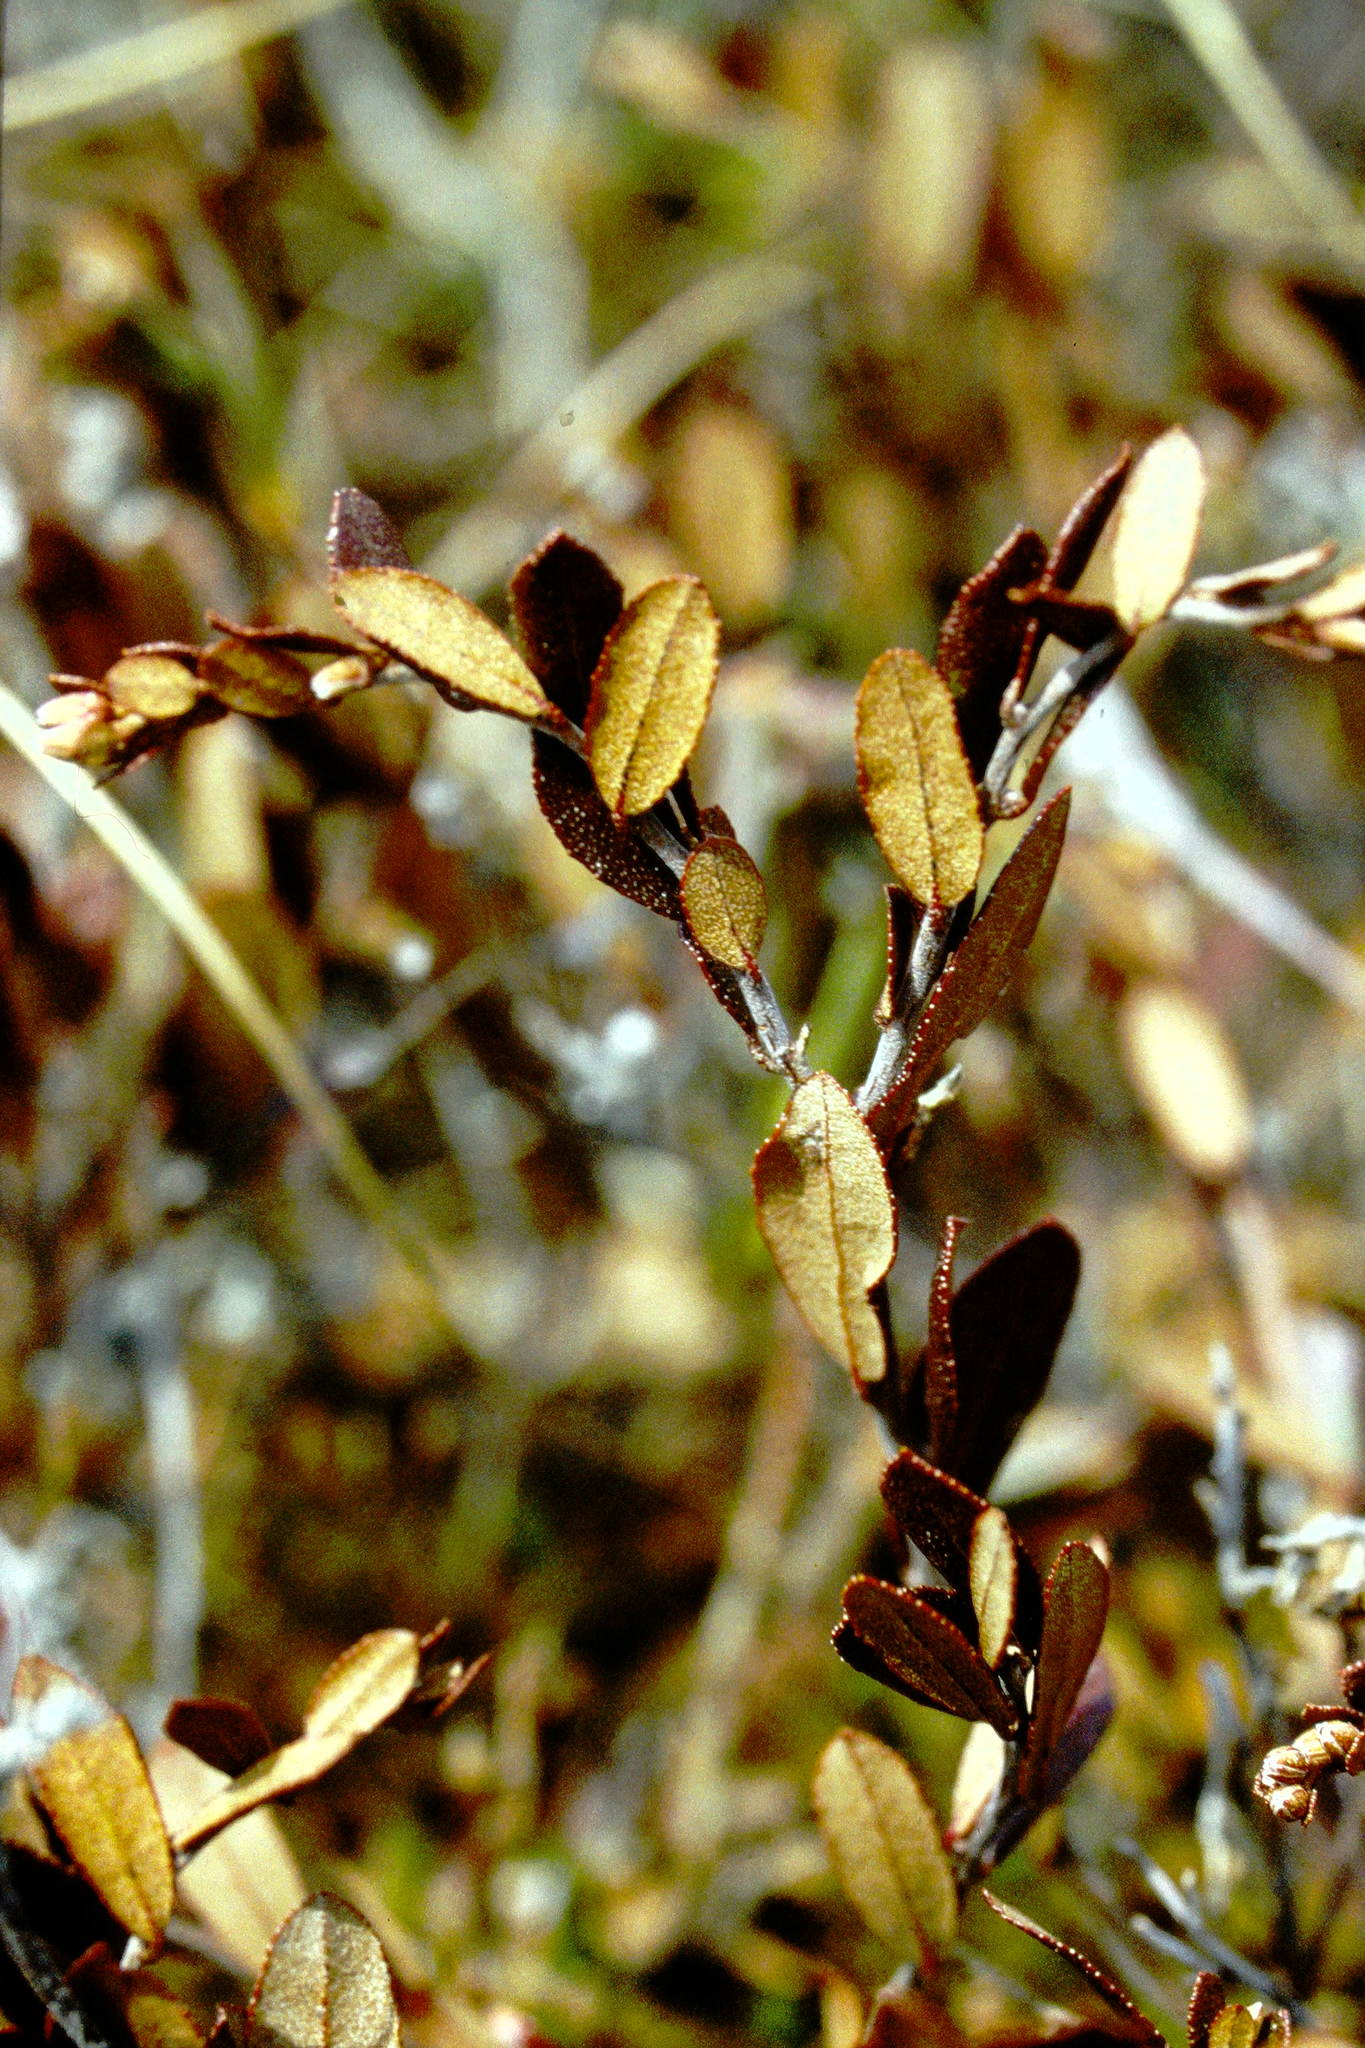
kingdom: Plantae
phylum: Tracheophyta
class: Magnoliopsida
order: Ericales
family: Ericaceae
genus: Chamaedaphne
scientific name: Chamaedaphne calyculata
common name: Leatherleaf
